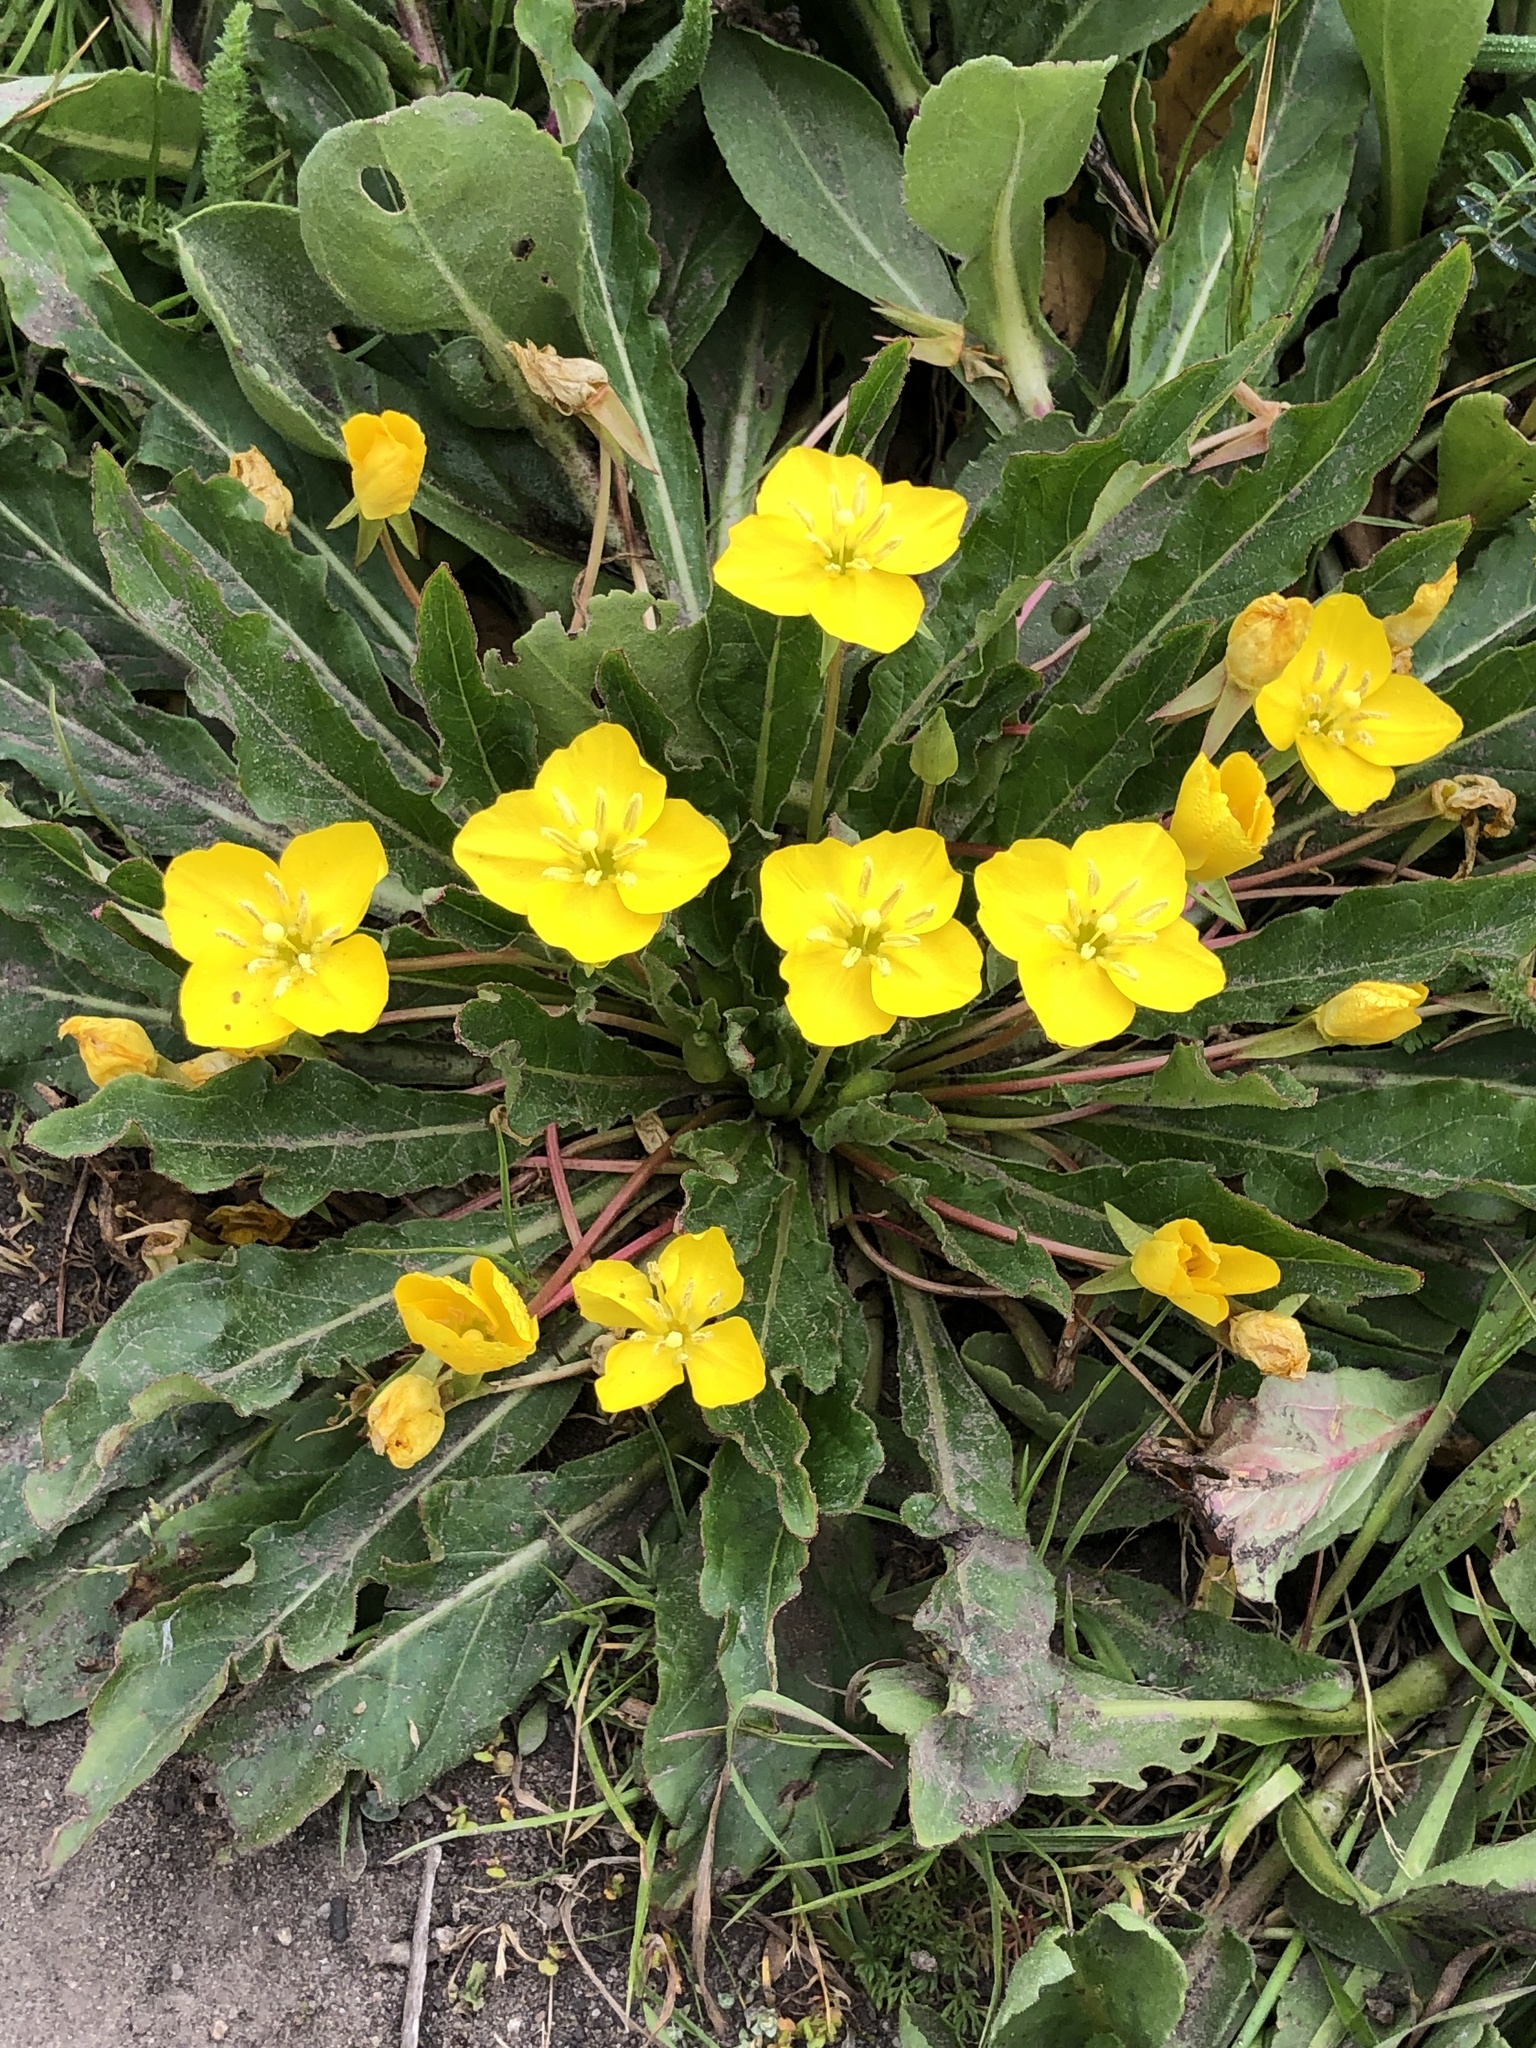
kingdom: Plantae
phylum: Tracheophyta
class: Magnoliopsida
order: Myrtales
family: Onagraceae
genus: Taraxia
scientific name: Taraxia ovata
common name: Goldeneggs
